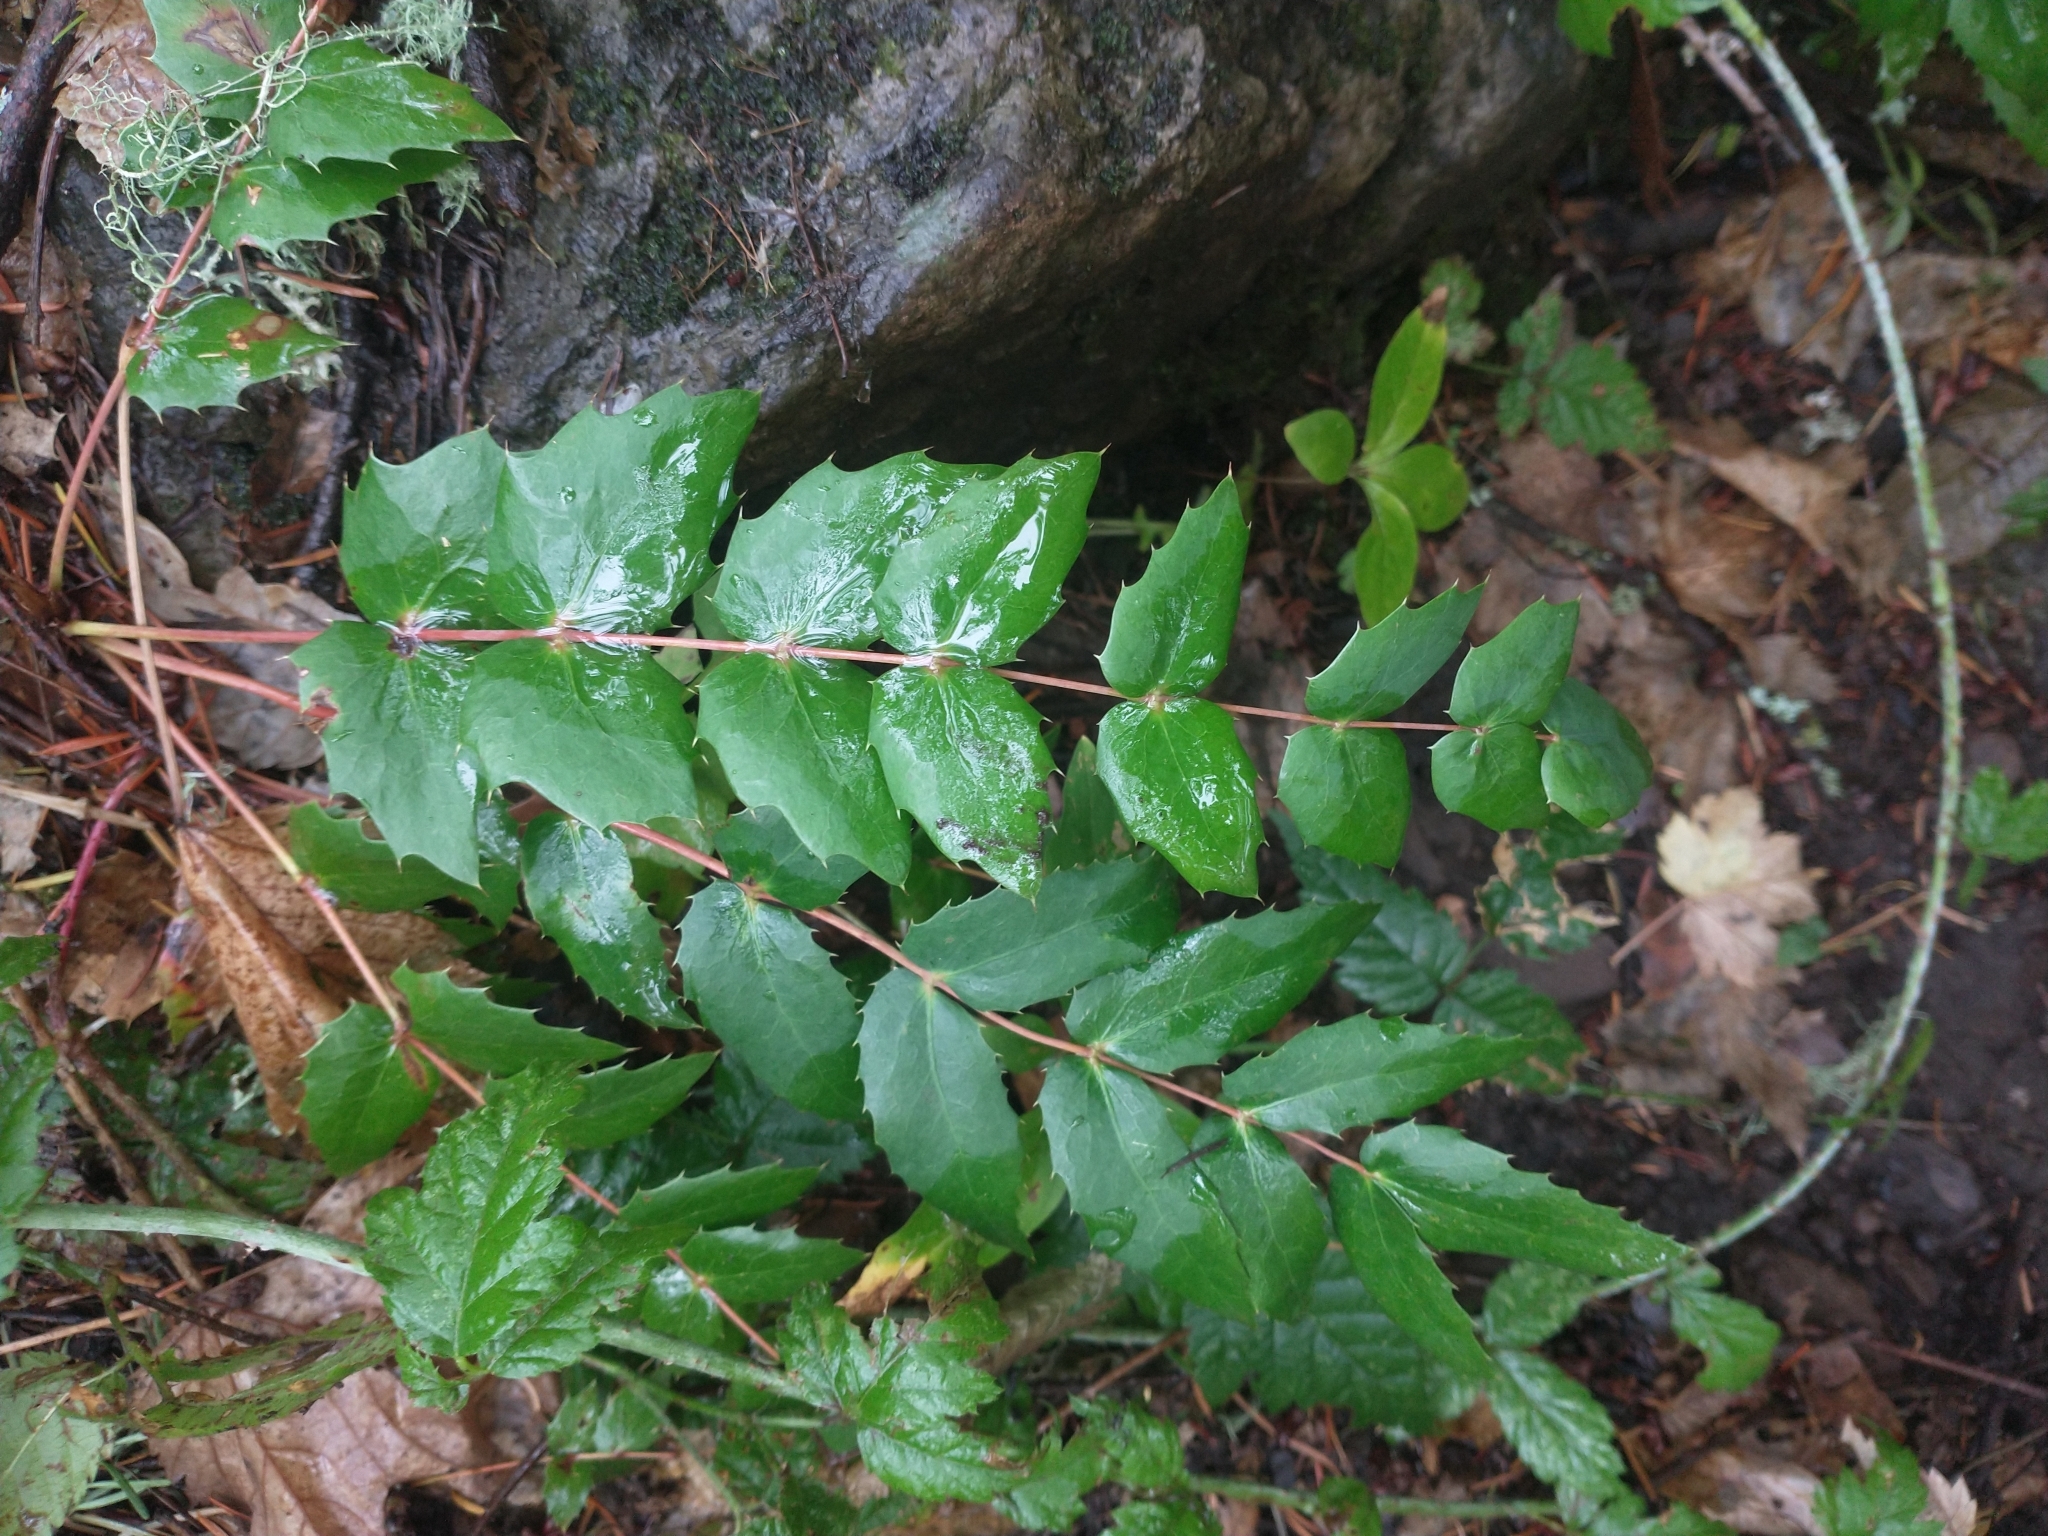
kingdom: Plantae
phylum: Tracheophyta
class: Magnoliopsida
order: Ranunculales
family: Berberidaceae
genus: Mahonia
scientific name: Mahonia nervosa
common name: Cascade oregon-grape
